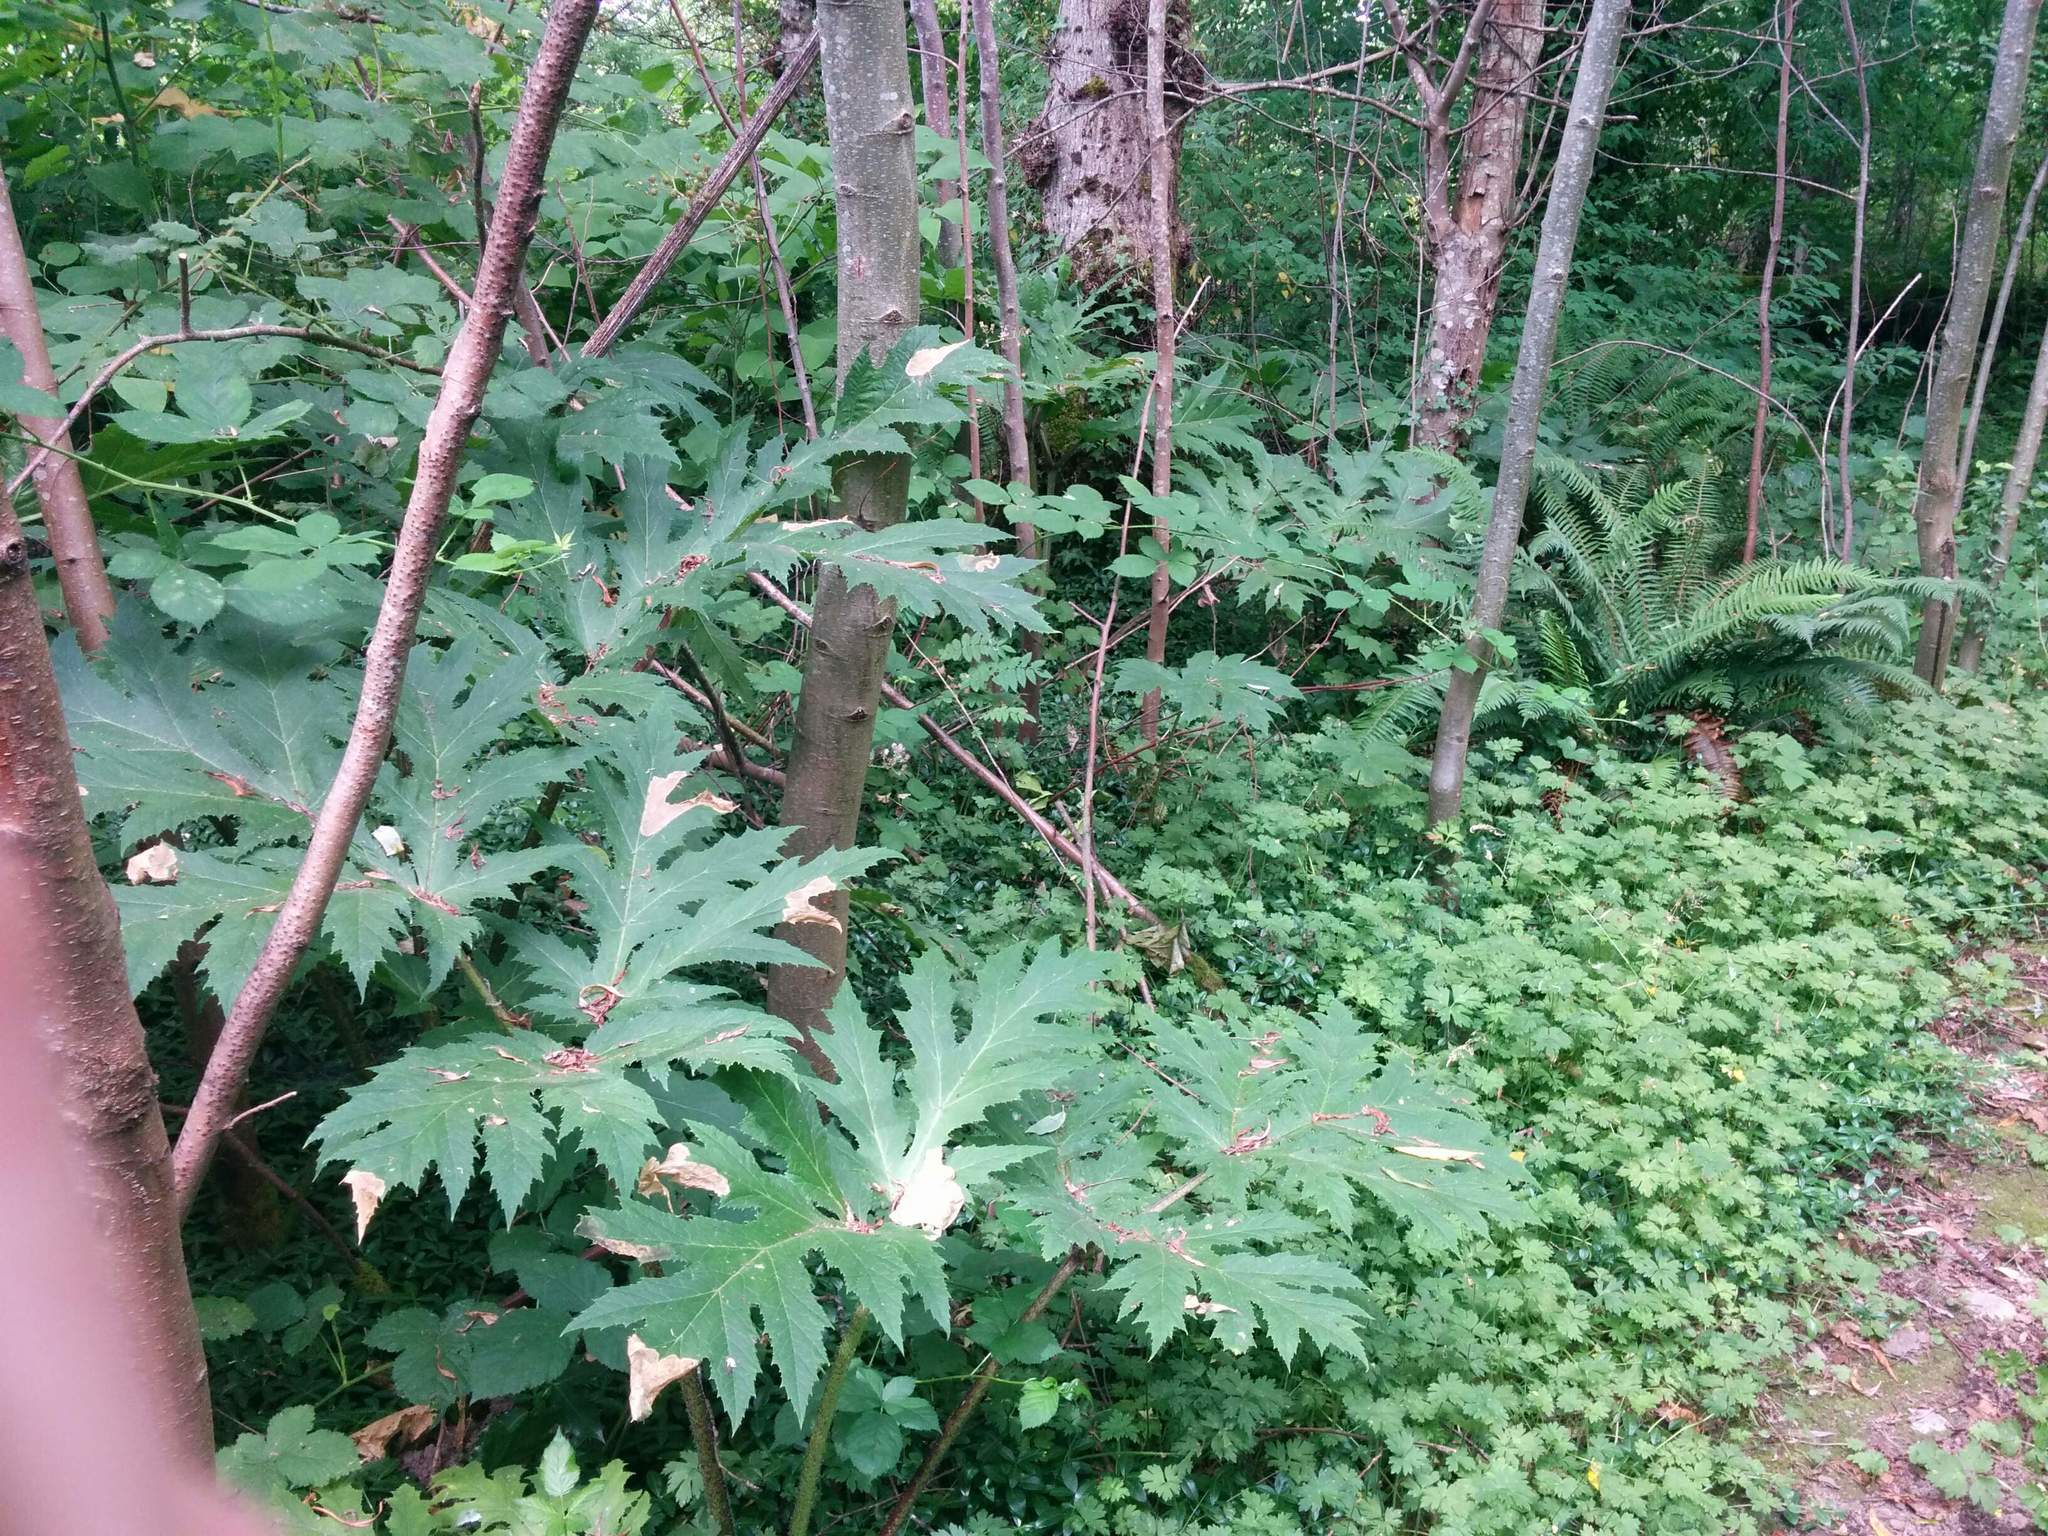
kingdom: Plantae
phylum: Tracheophyta
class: Magnoliopsida
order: Apiales
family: Apiaceae
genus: Heracleum
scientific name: Heracleum mantegazzianum
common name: Giant hogweed
